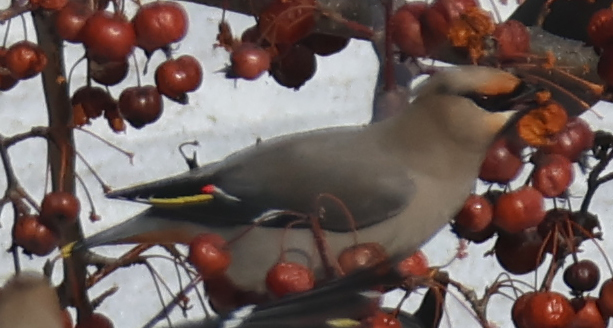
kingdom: Animalia
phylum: Chordata
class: Aves
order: Passeriformes
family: Bombycillidae
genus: Bombycilla
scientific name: Bombycilla garrulus
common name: Bohemian waxwing
